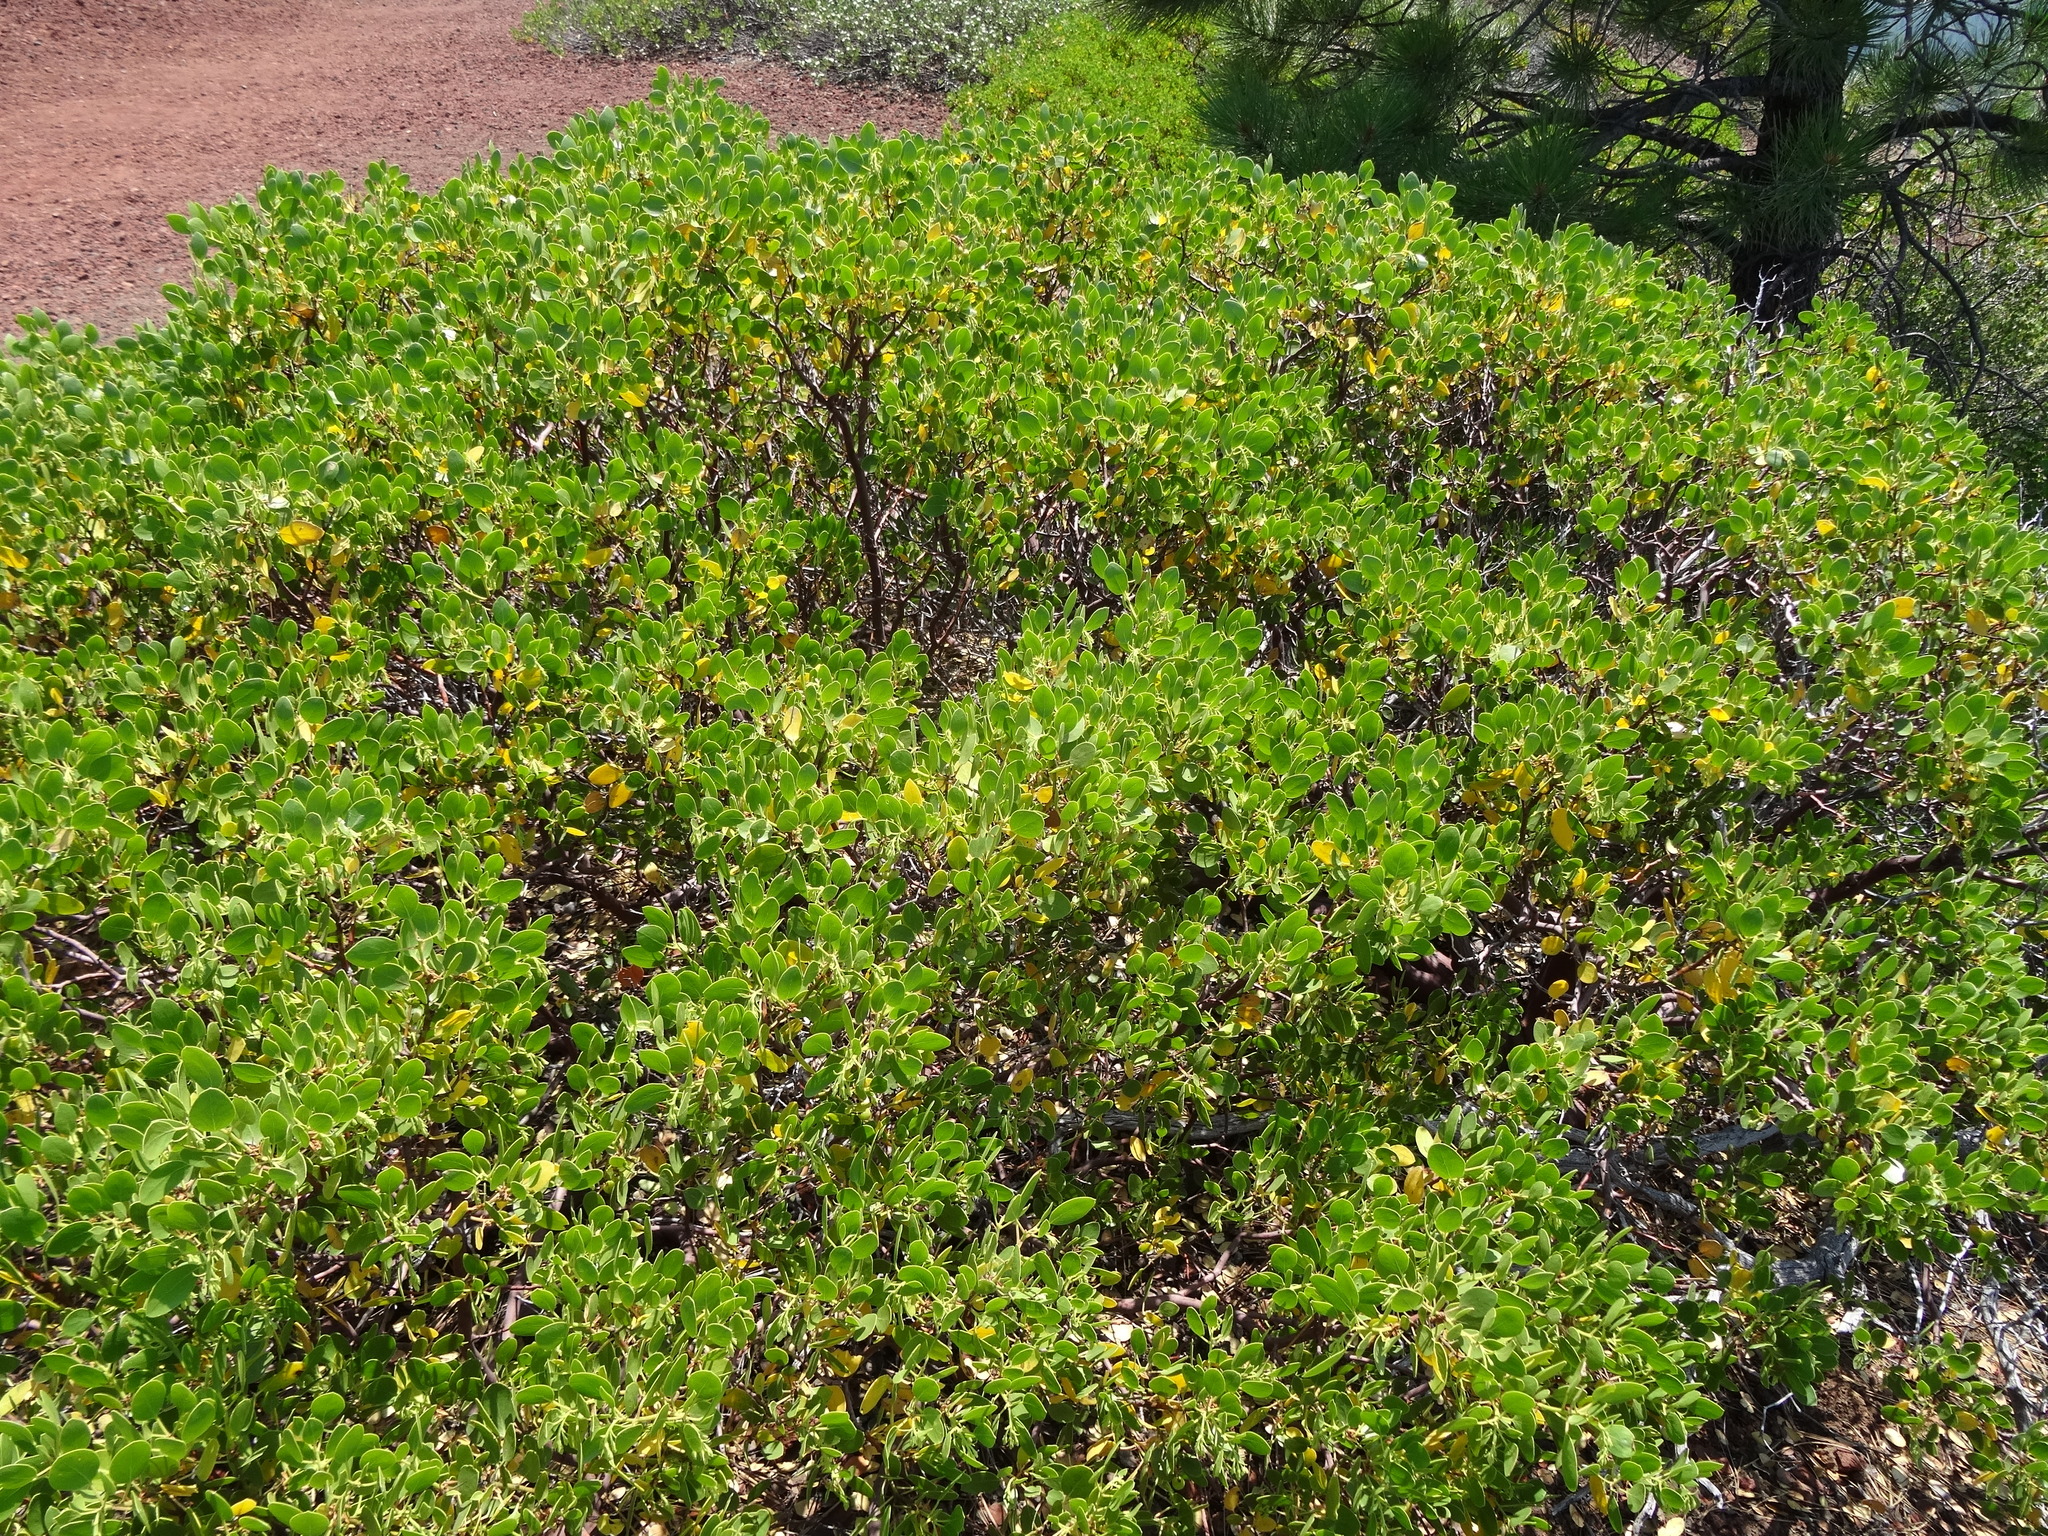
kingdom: Plantae
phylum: Tracheophyta
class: Magnoliopsida
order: Ericales
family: Ericaceae
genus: Arctostaphylos
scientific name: Arctostaphylos patula
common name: Green-leaf manzanita
